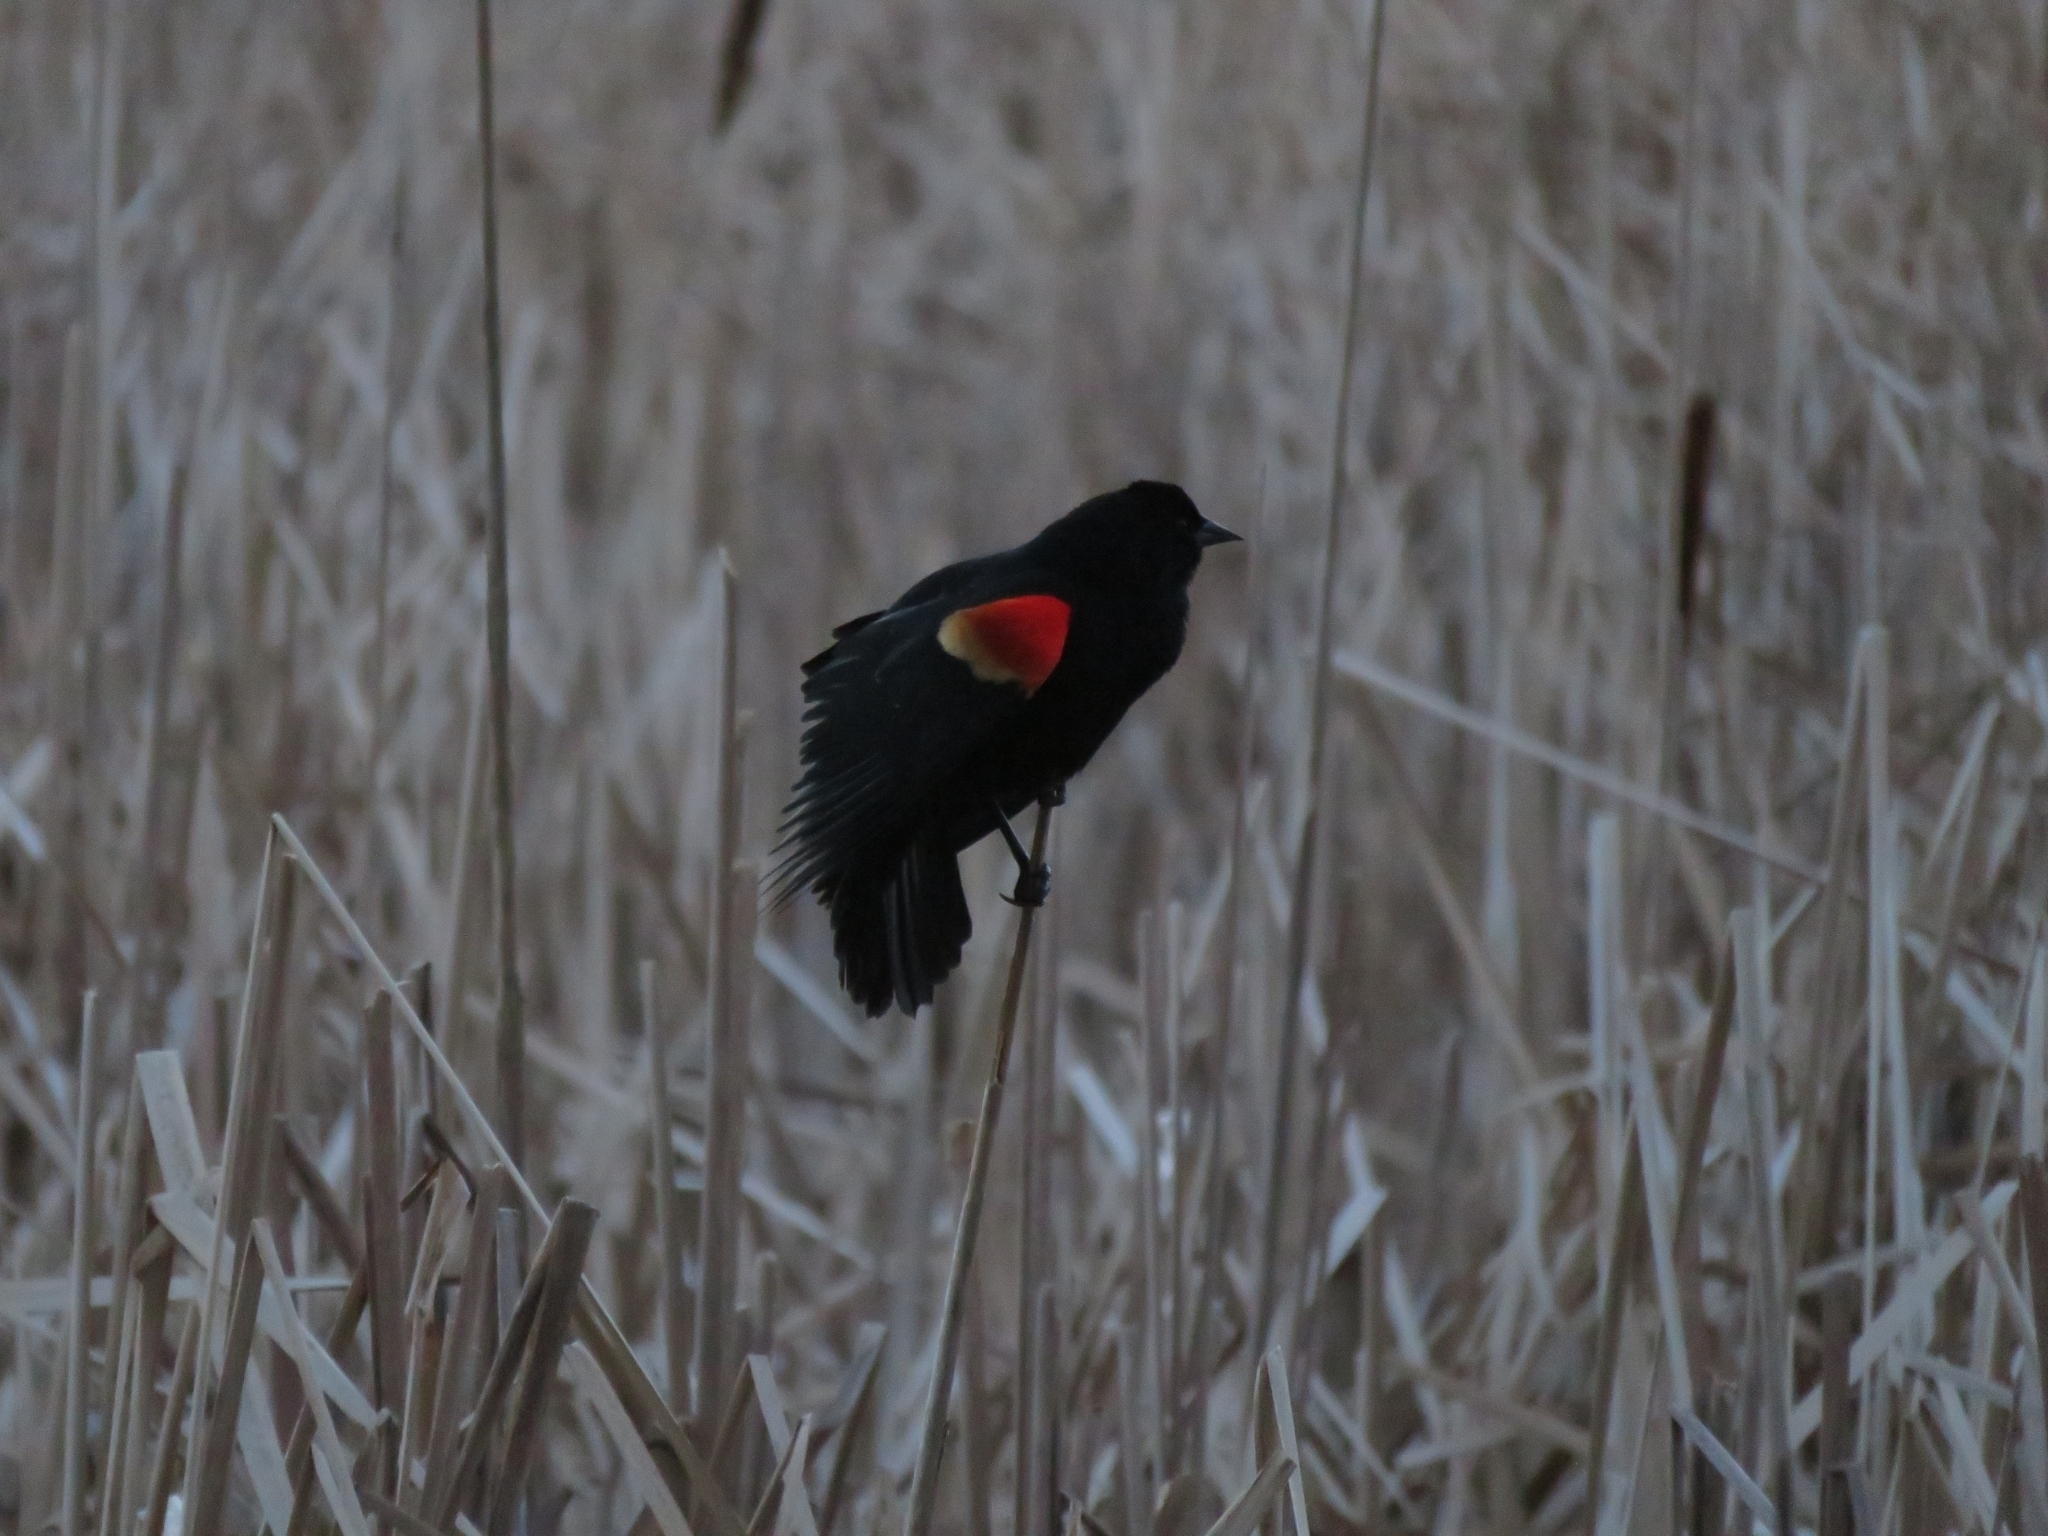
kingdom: Animalia
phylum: Chordata
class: Aves
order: Passeriformes
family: Icteridae
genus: Agelaius
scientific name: Agelaius phoeniceus
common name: Red-winged blackbird
